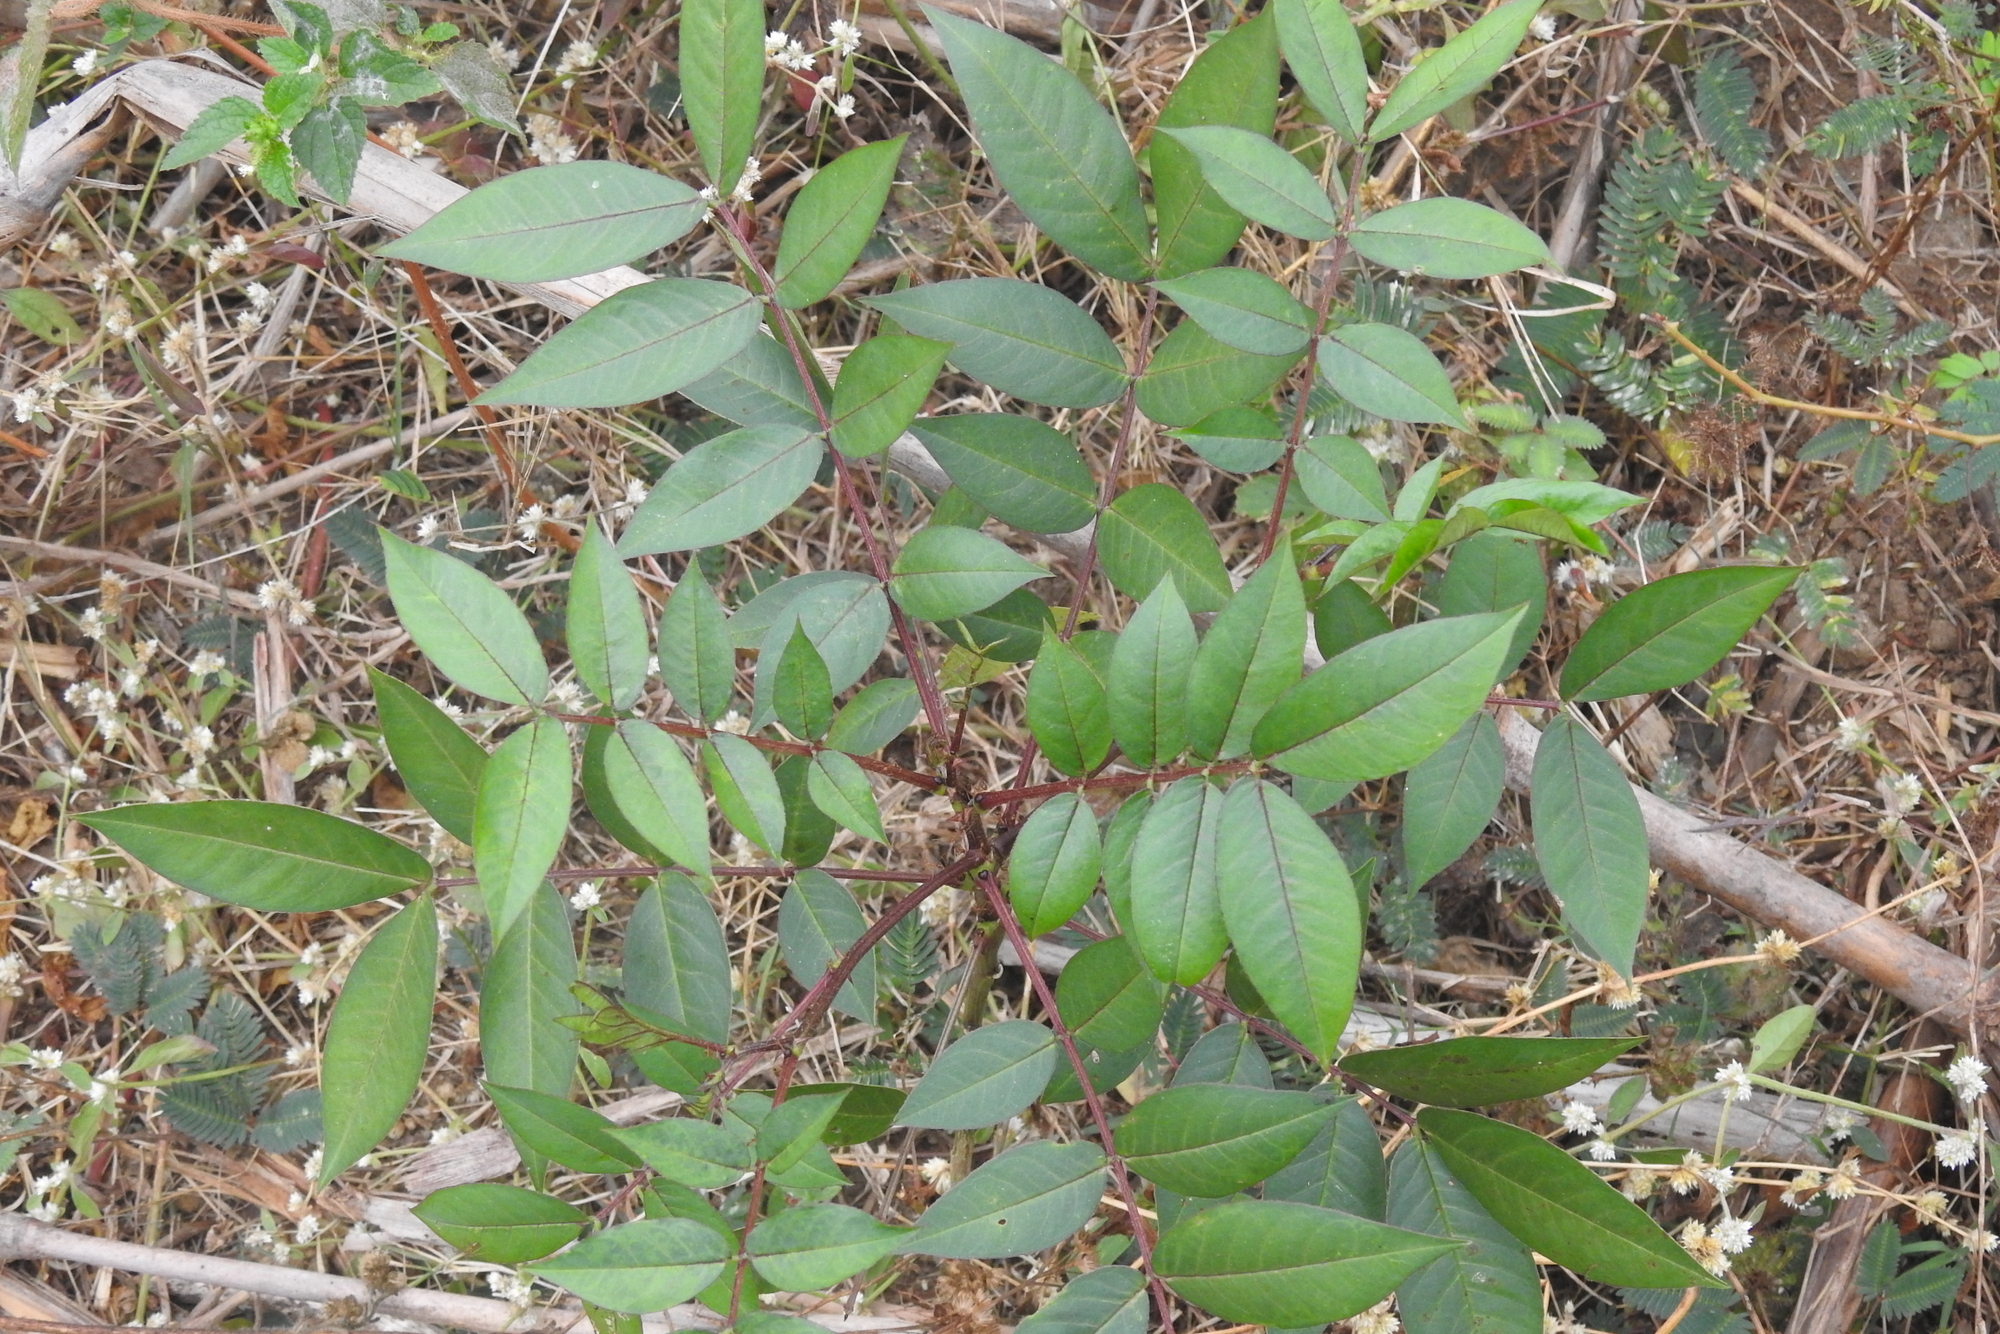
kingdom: Plantae
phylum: Tracheophyta
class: Magnoliopsida
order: Fabales
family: Fabaceae
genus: Senna
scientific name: Senna occidentalis
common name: Septicweed
